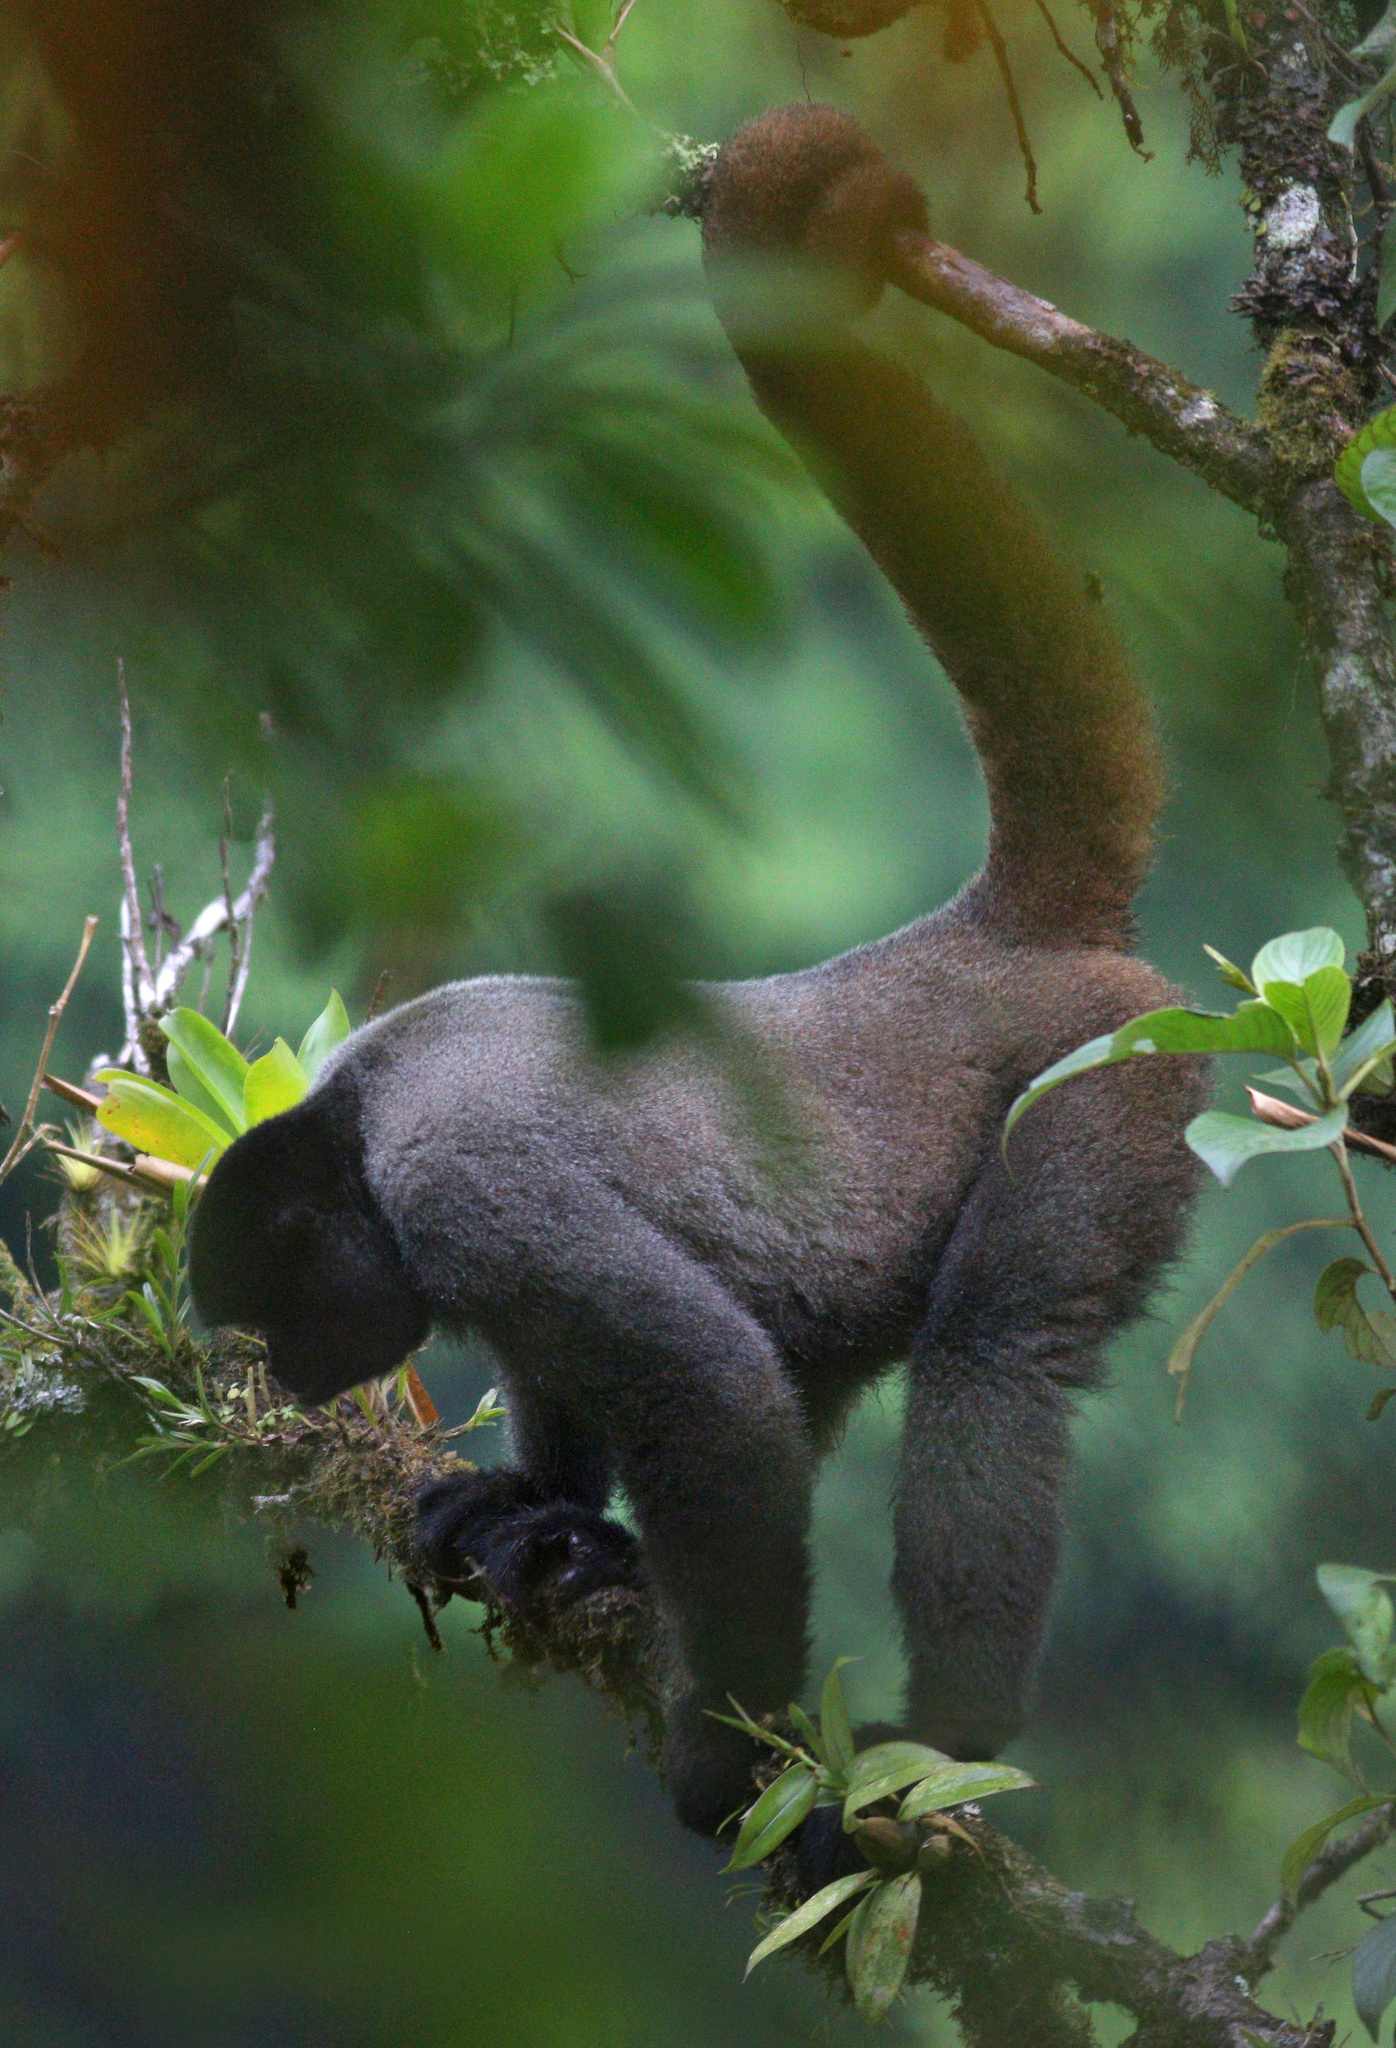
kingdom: Animalia
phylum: Chordata
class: Mammalia
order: Primates
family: Atelidae
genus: Lagothrix
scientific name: Lagothrix lagothricha
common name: Brown woolly monkey
